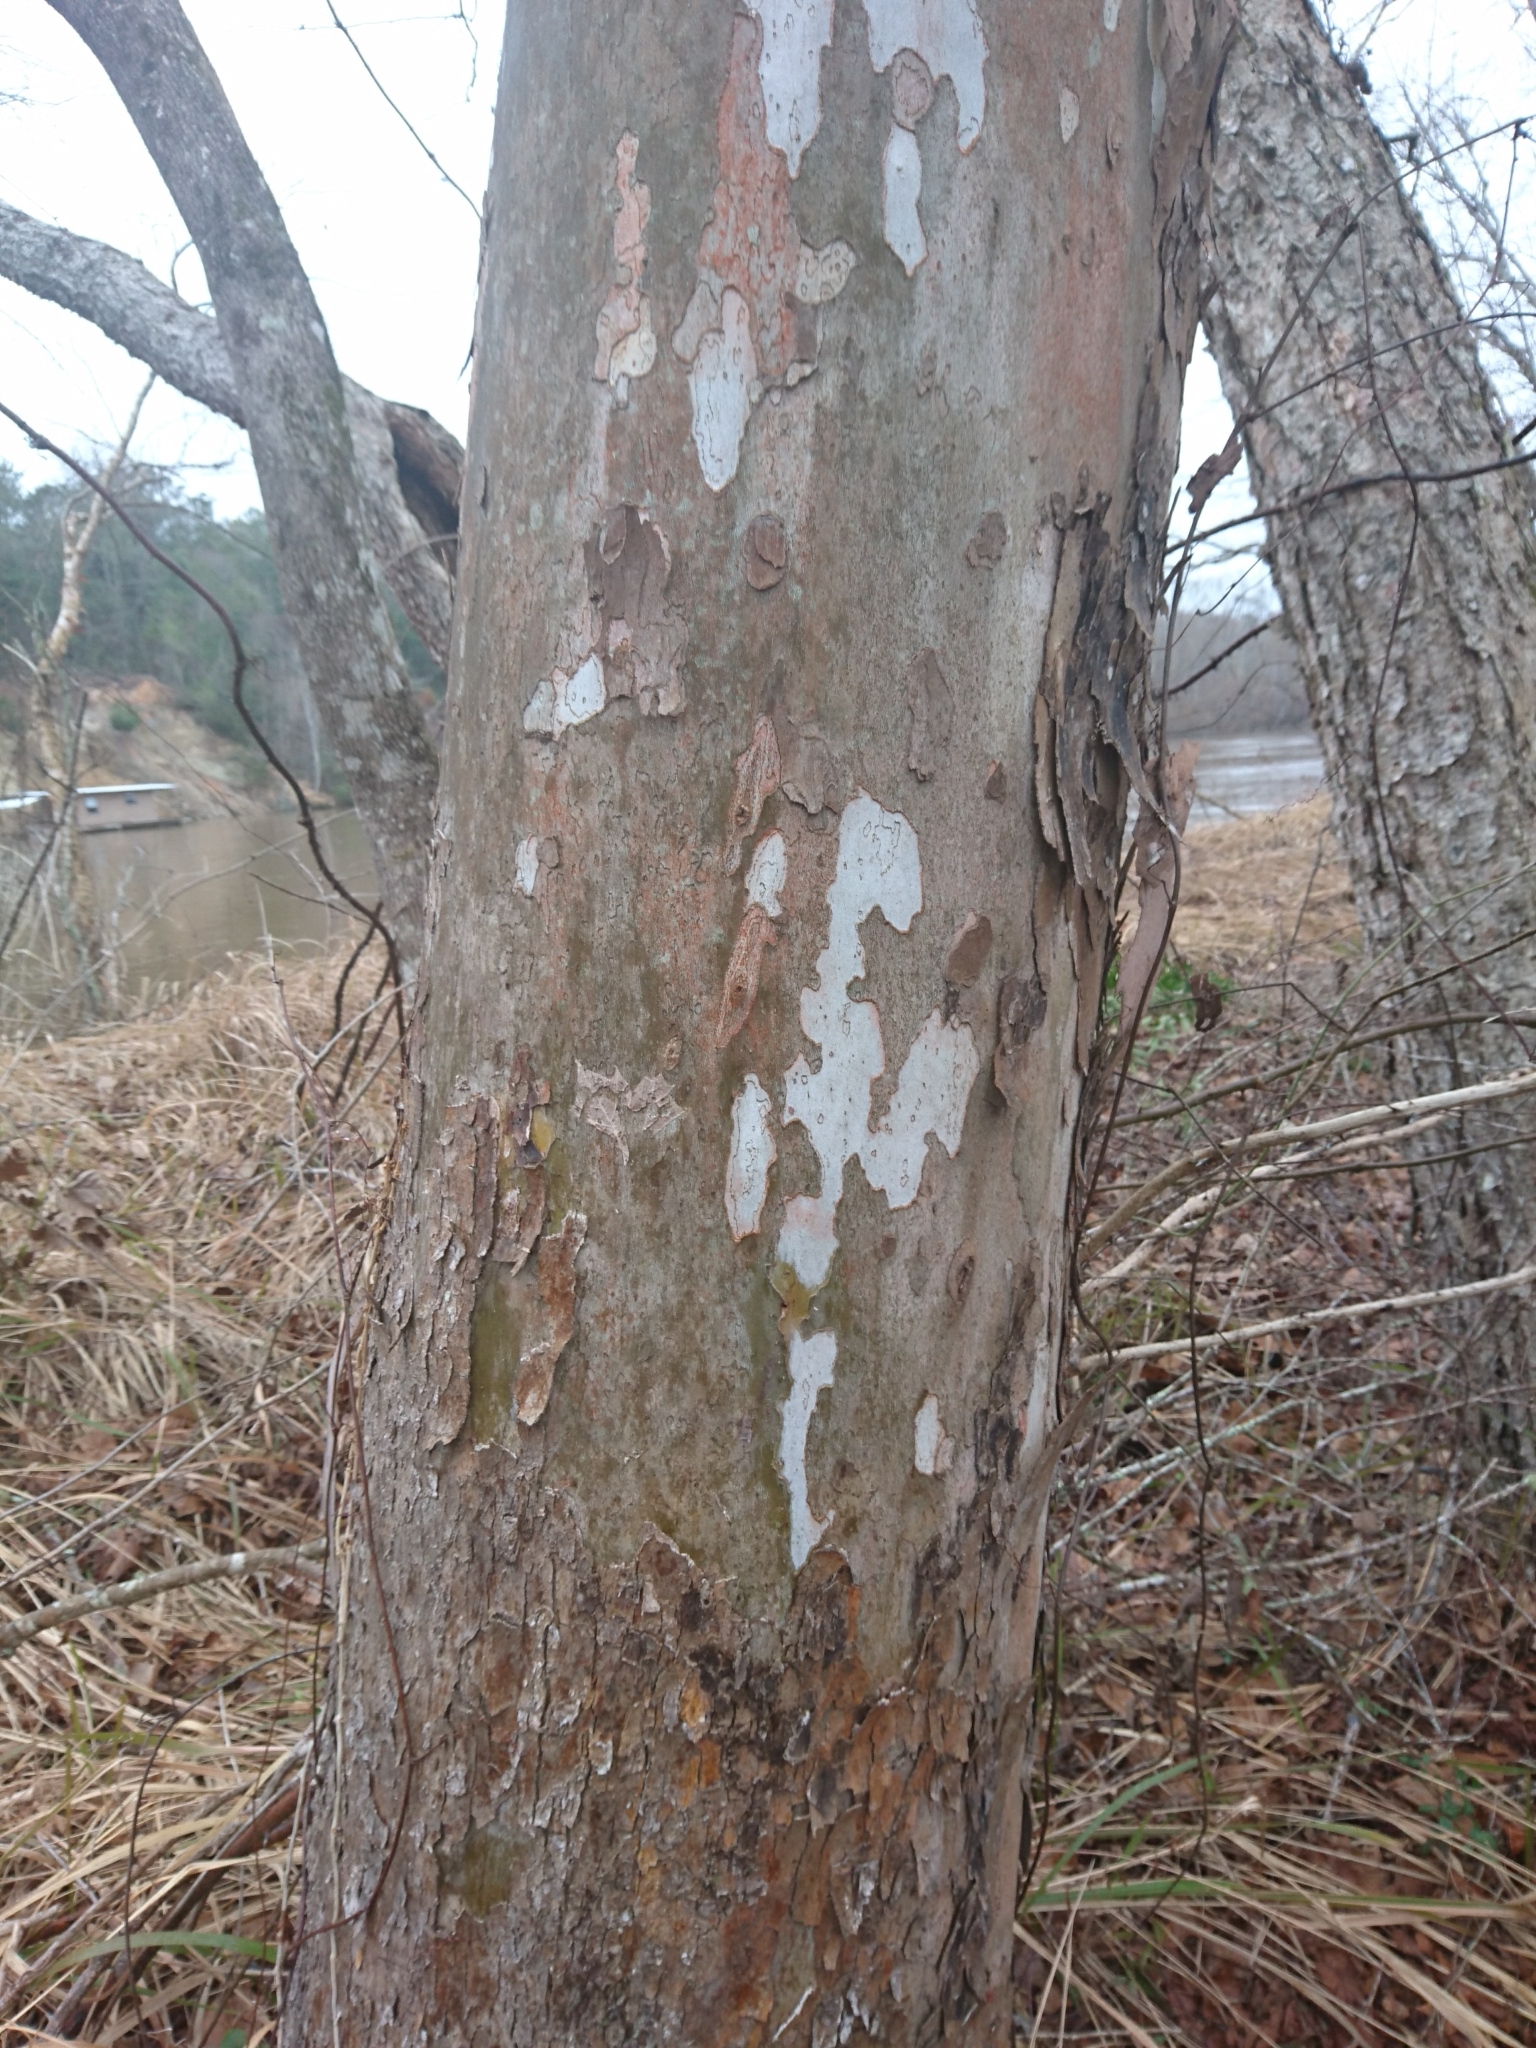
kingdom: Plantae
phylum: Tracheophyta
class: Magnoliopsida
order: Proteales
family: Platanaceae
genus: Platanus
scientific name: Platanus occidentalis
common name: American sycamore
